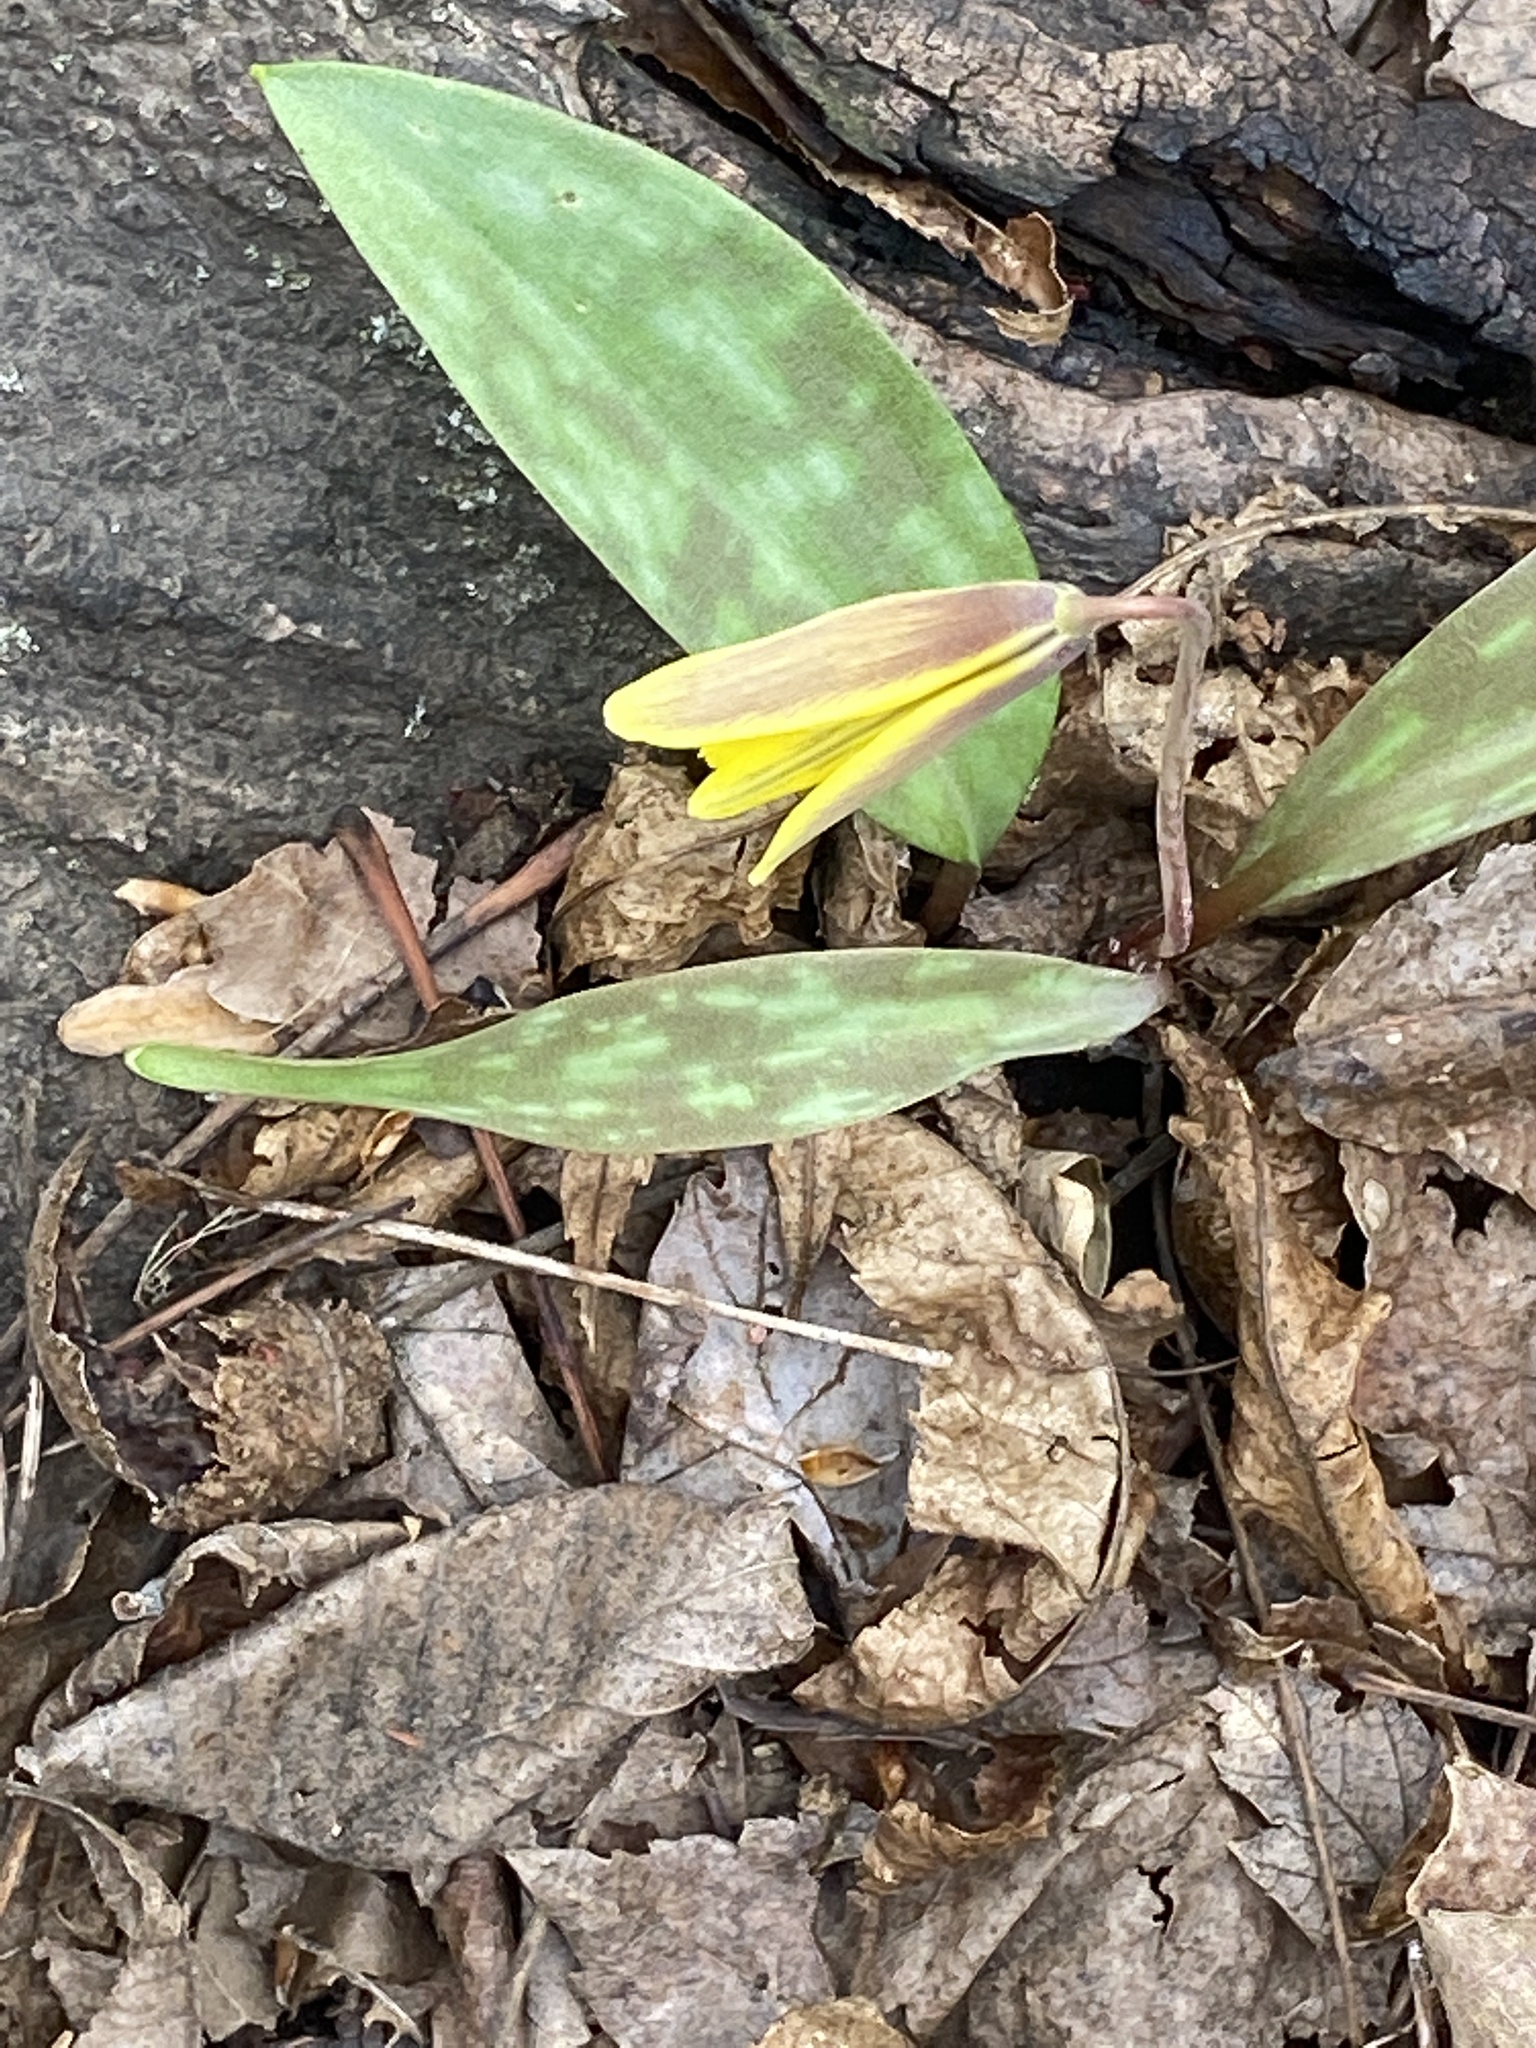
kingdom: Plantae
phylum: Tracheophyta
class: Liliopsida
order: Liliales
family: Liliaceae
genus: Erythronium
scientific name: Erythronium americanum
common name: Yellow adder's-tongue
